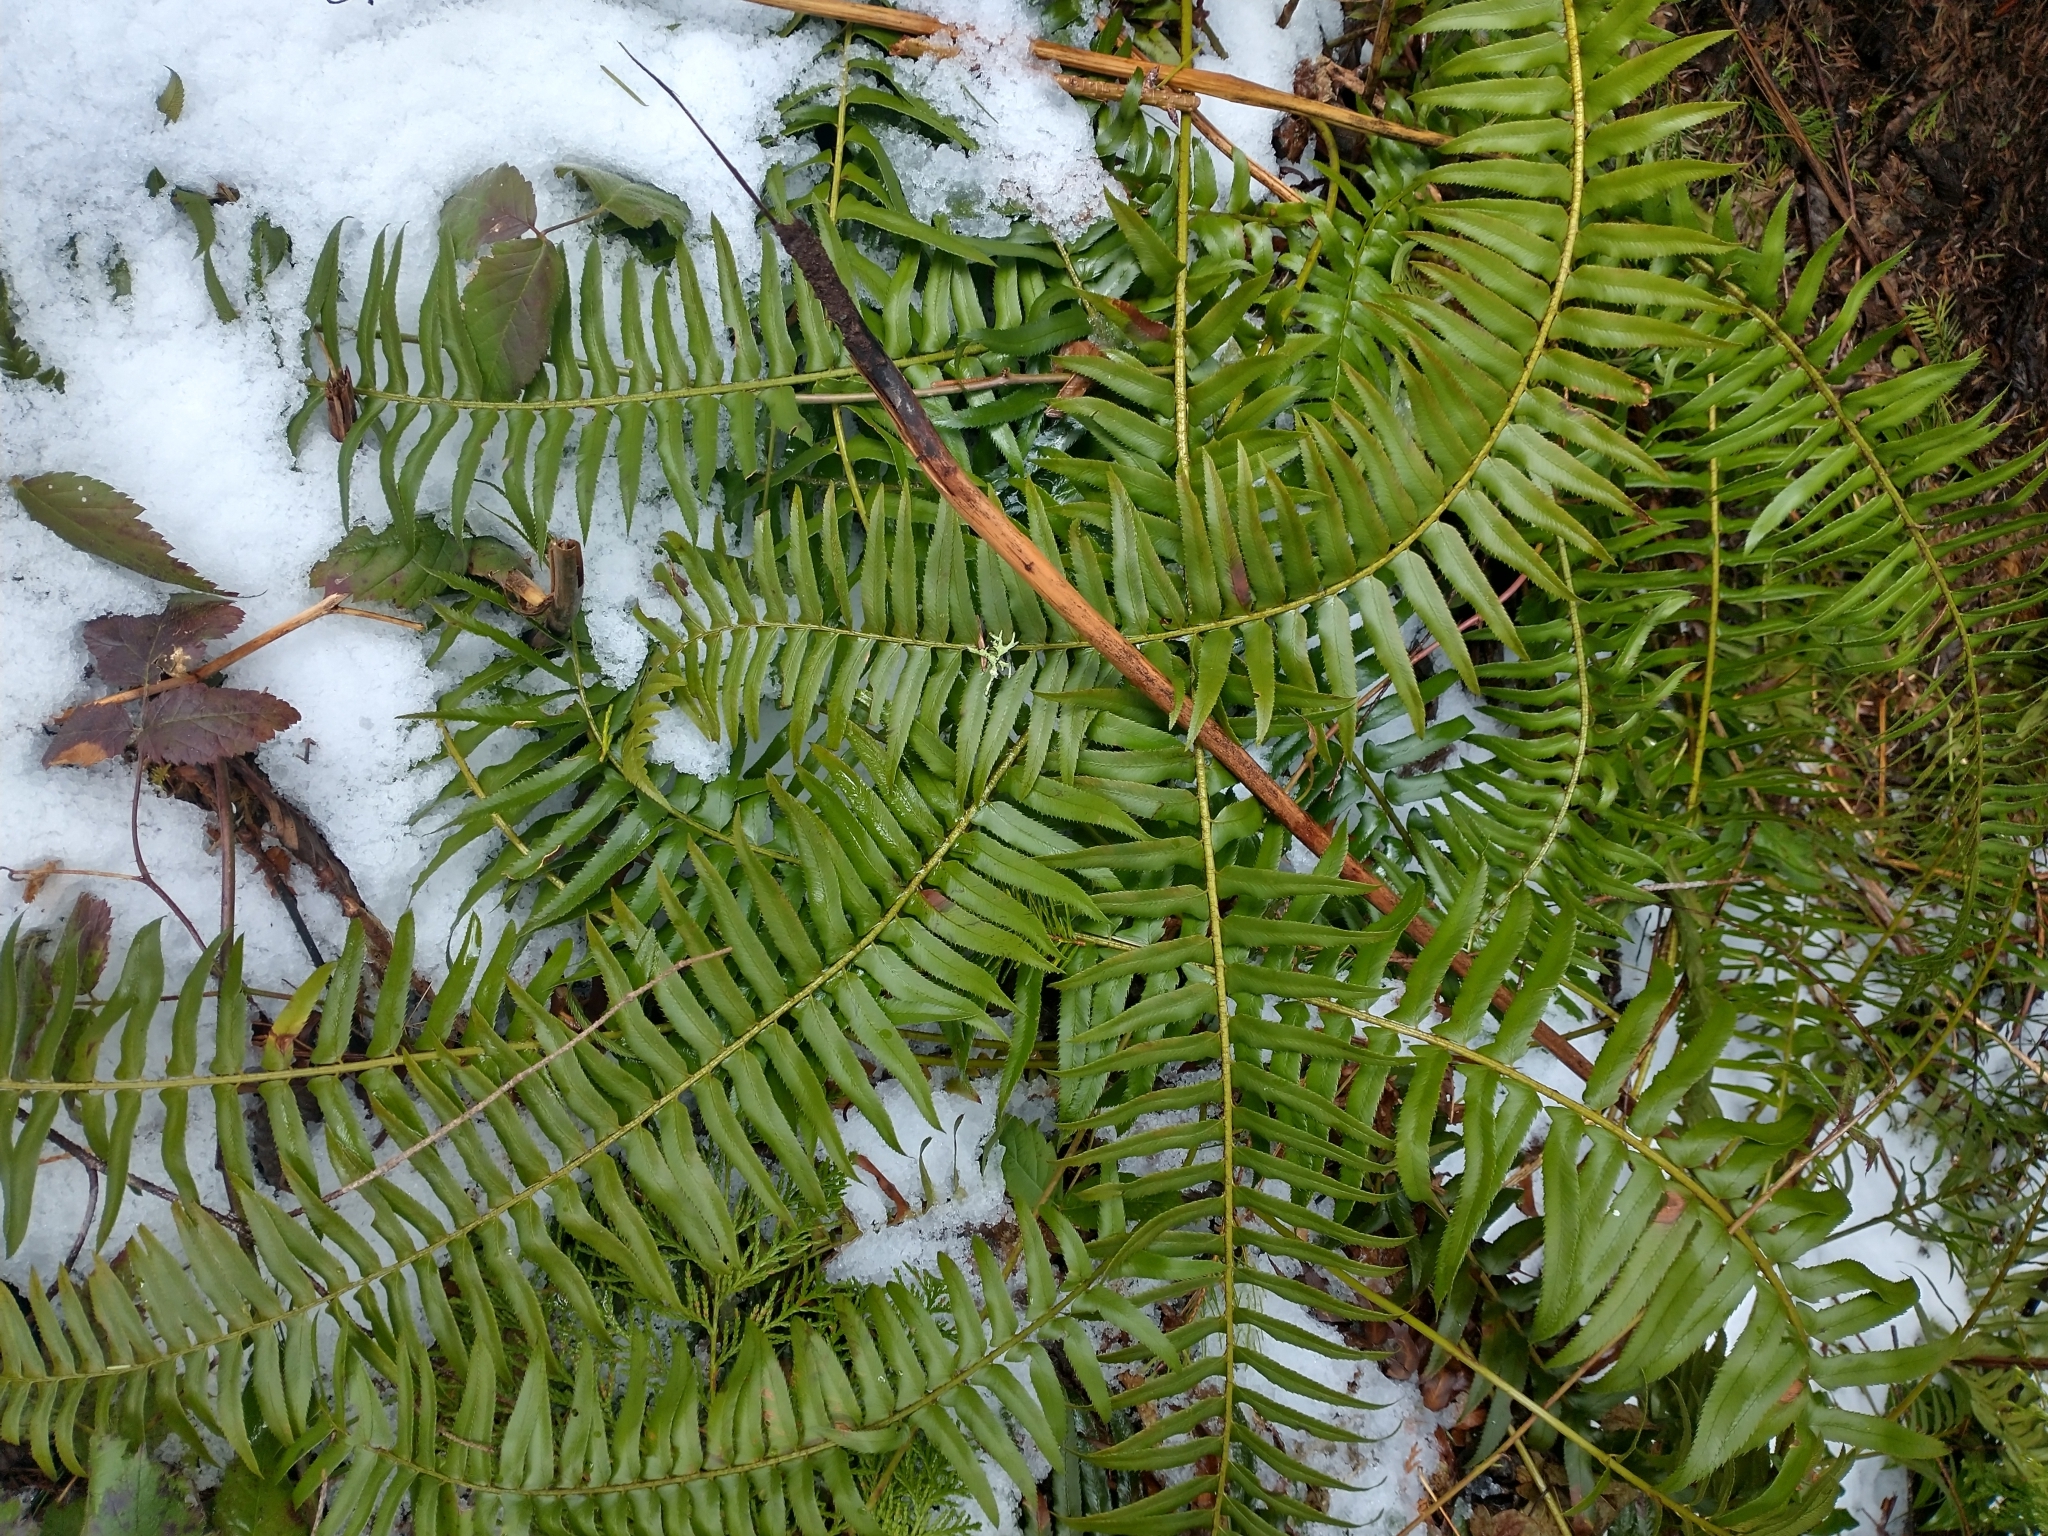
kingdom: Plantae
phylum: Tracheophyta
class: Polypodiopsida
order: Polypodiales
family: Dryopteridaceae
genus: Polystichum
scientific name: Polystichum munitum
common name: Western sword-fern
